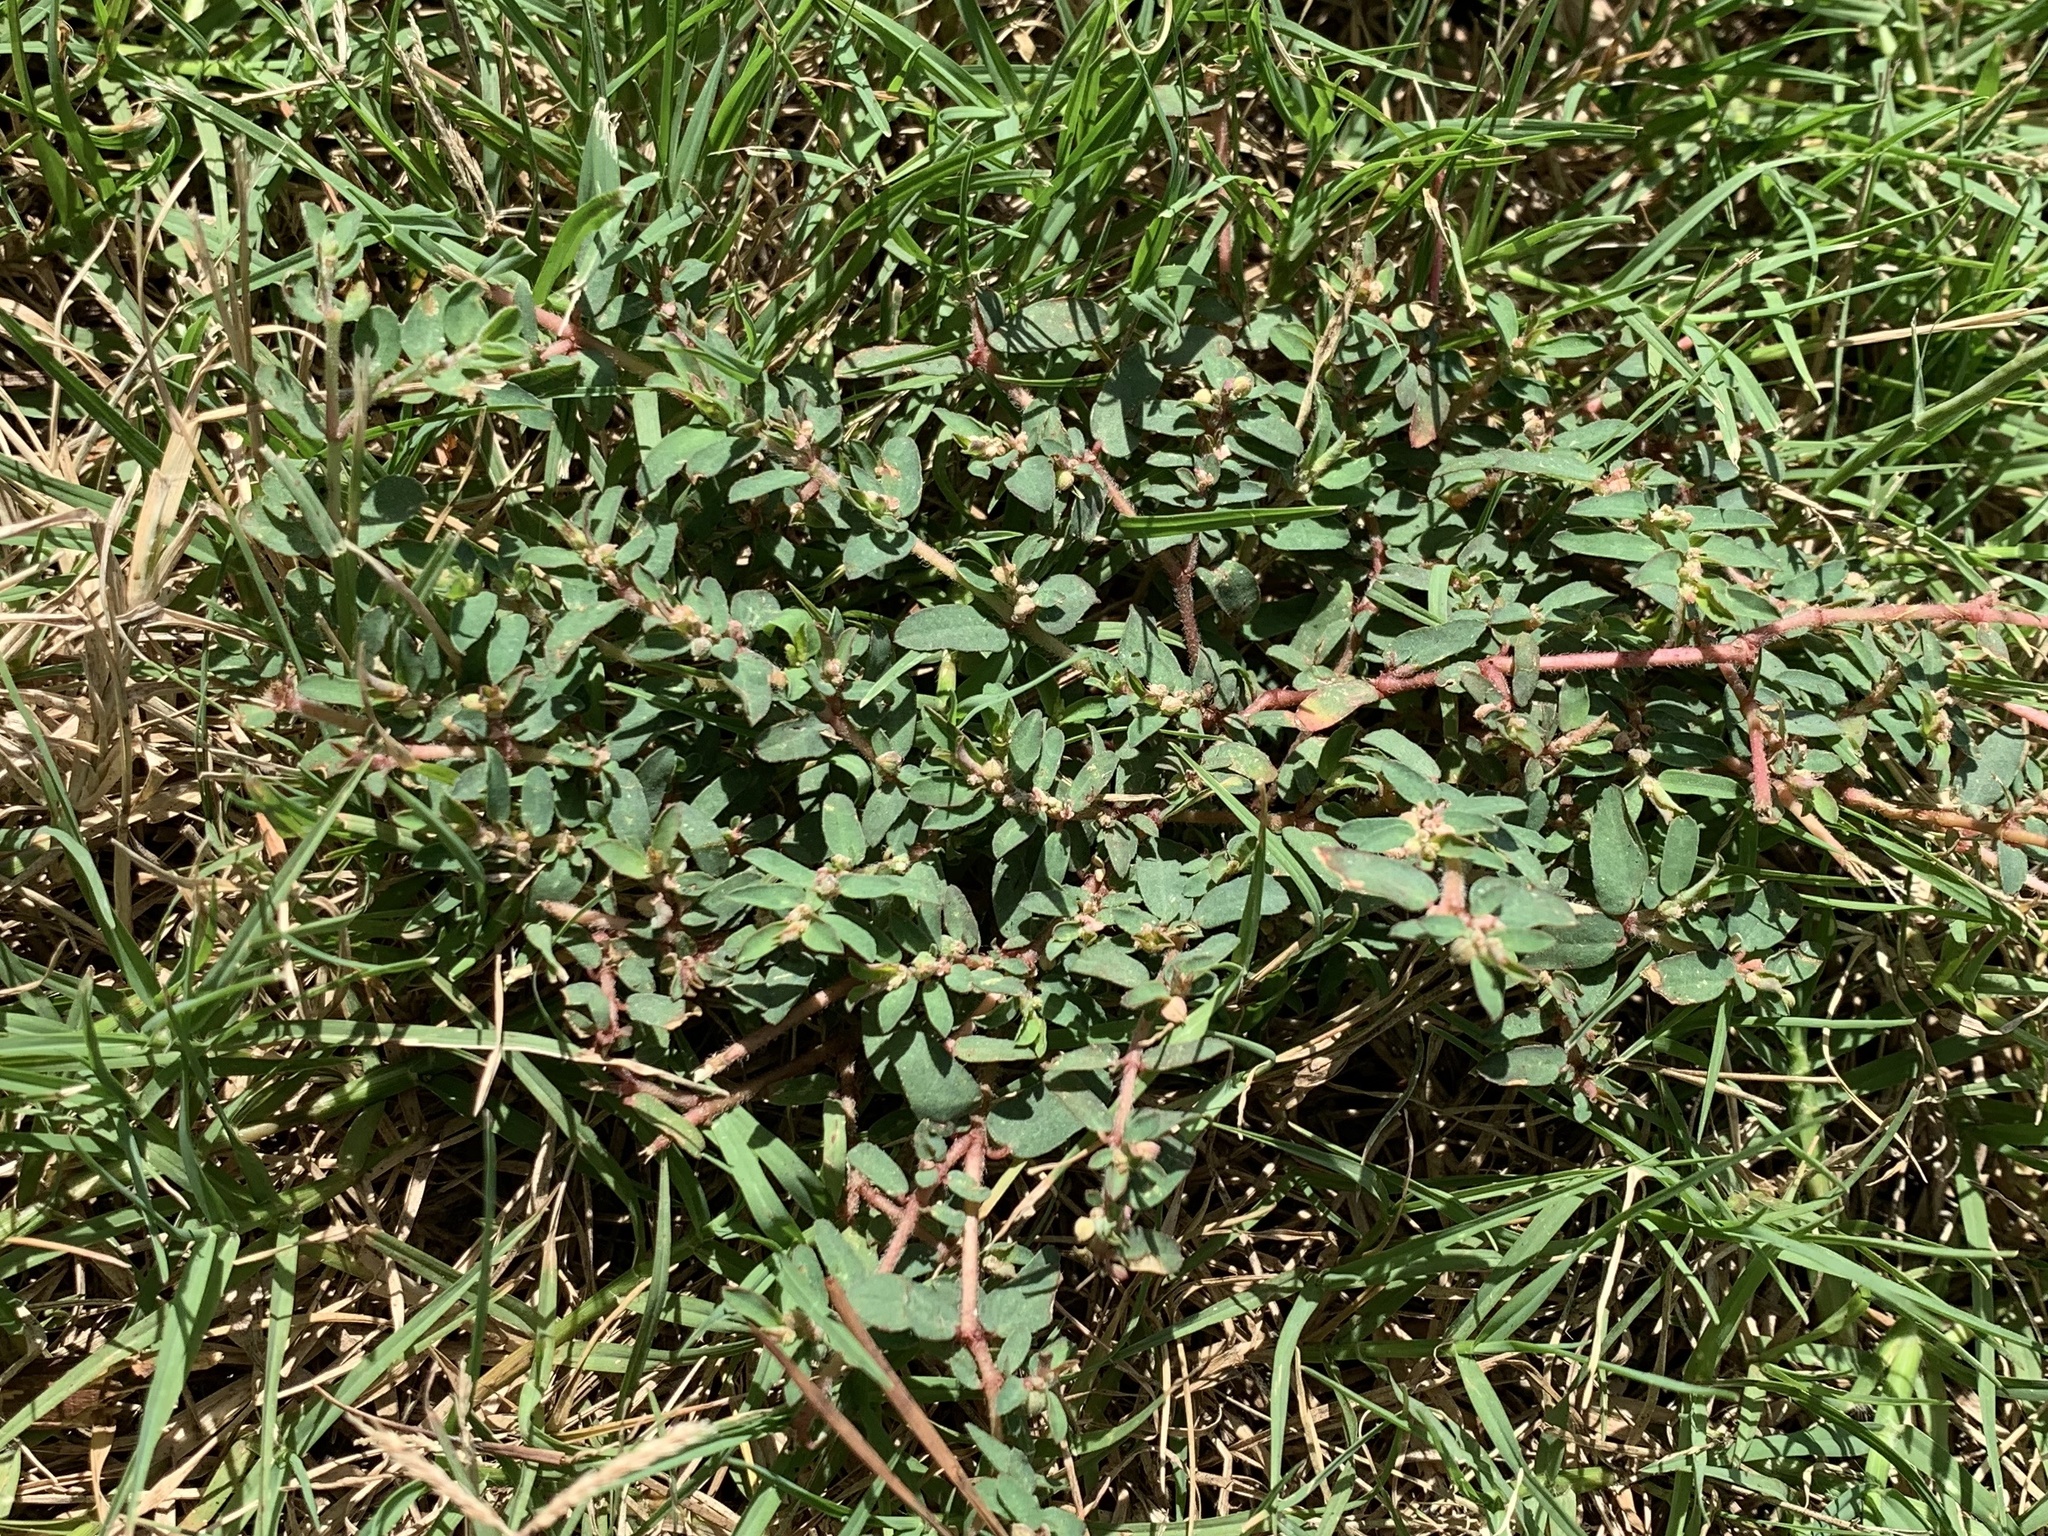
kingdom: Plantae
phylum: Tracheophyta
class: Magnoliopsida
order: Malpighiales
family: Euphorbiaceae
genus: Euphorbia
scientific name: Euphorbia maculata
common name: Spotted spurge
